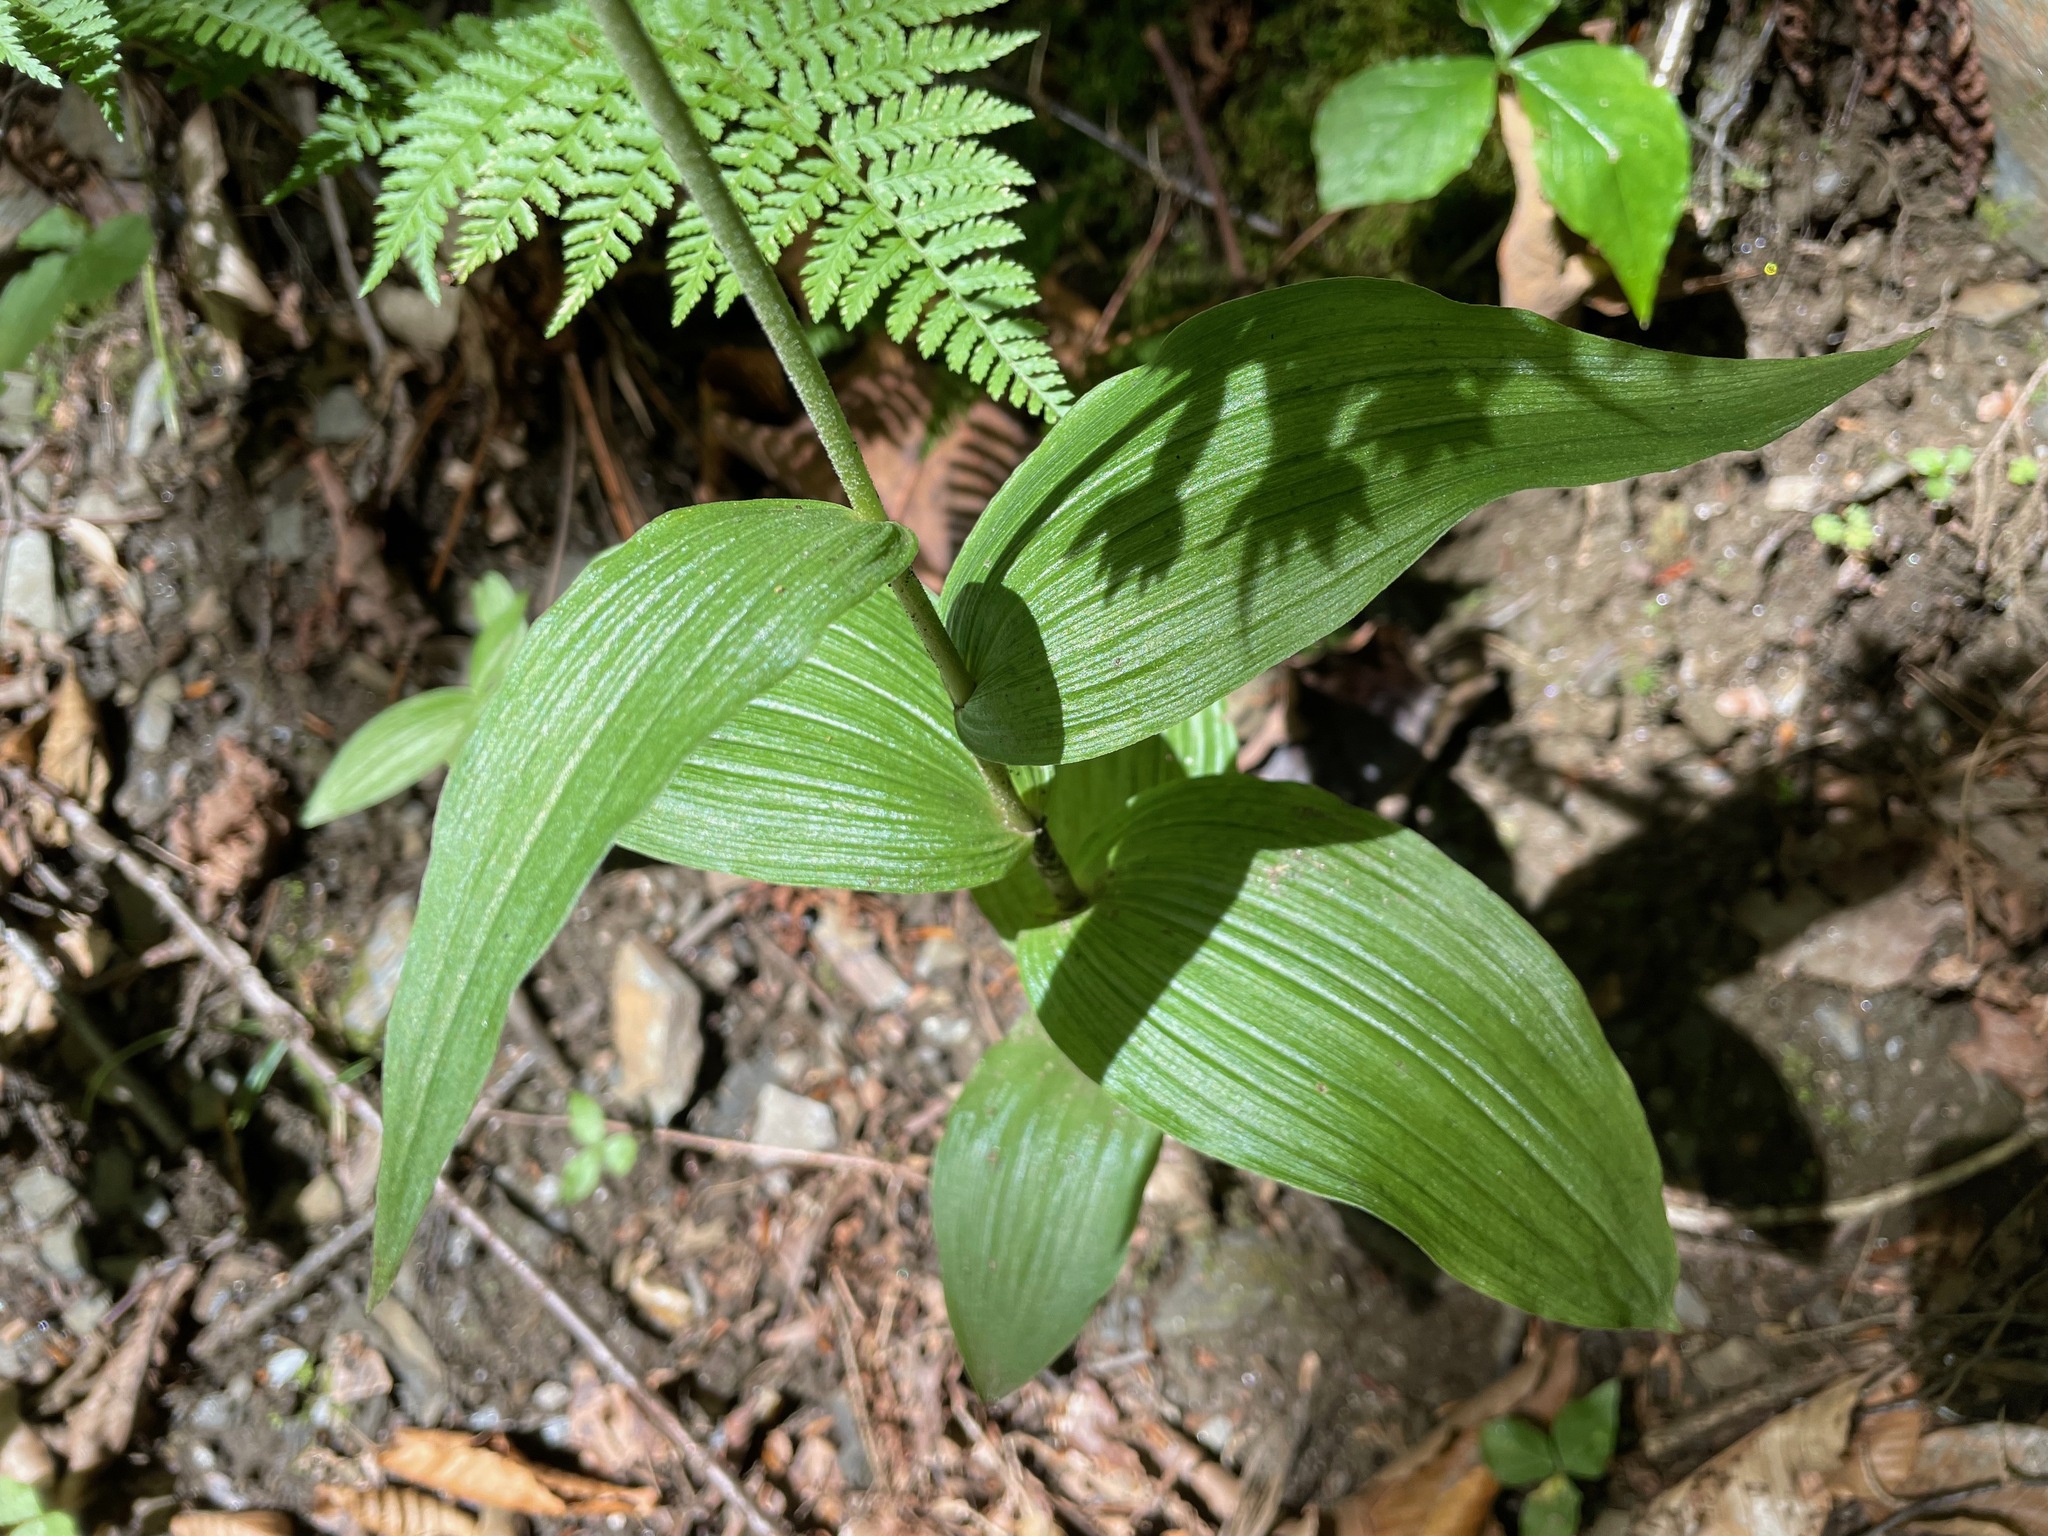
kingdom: Plantae
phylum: Tracheophyta
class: Liliopsida
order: Asparagales
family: Orchidaceae
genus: Epipactis
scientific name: Epipactis helleborine
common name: Broad-leaved helleborine
